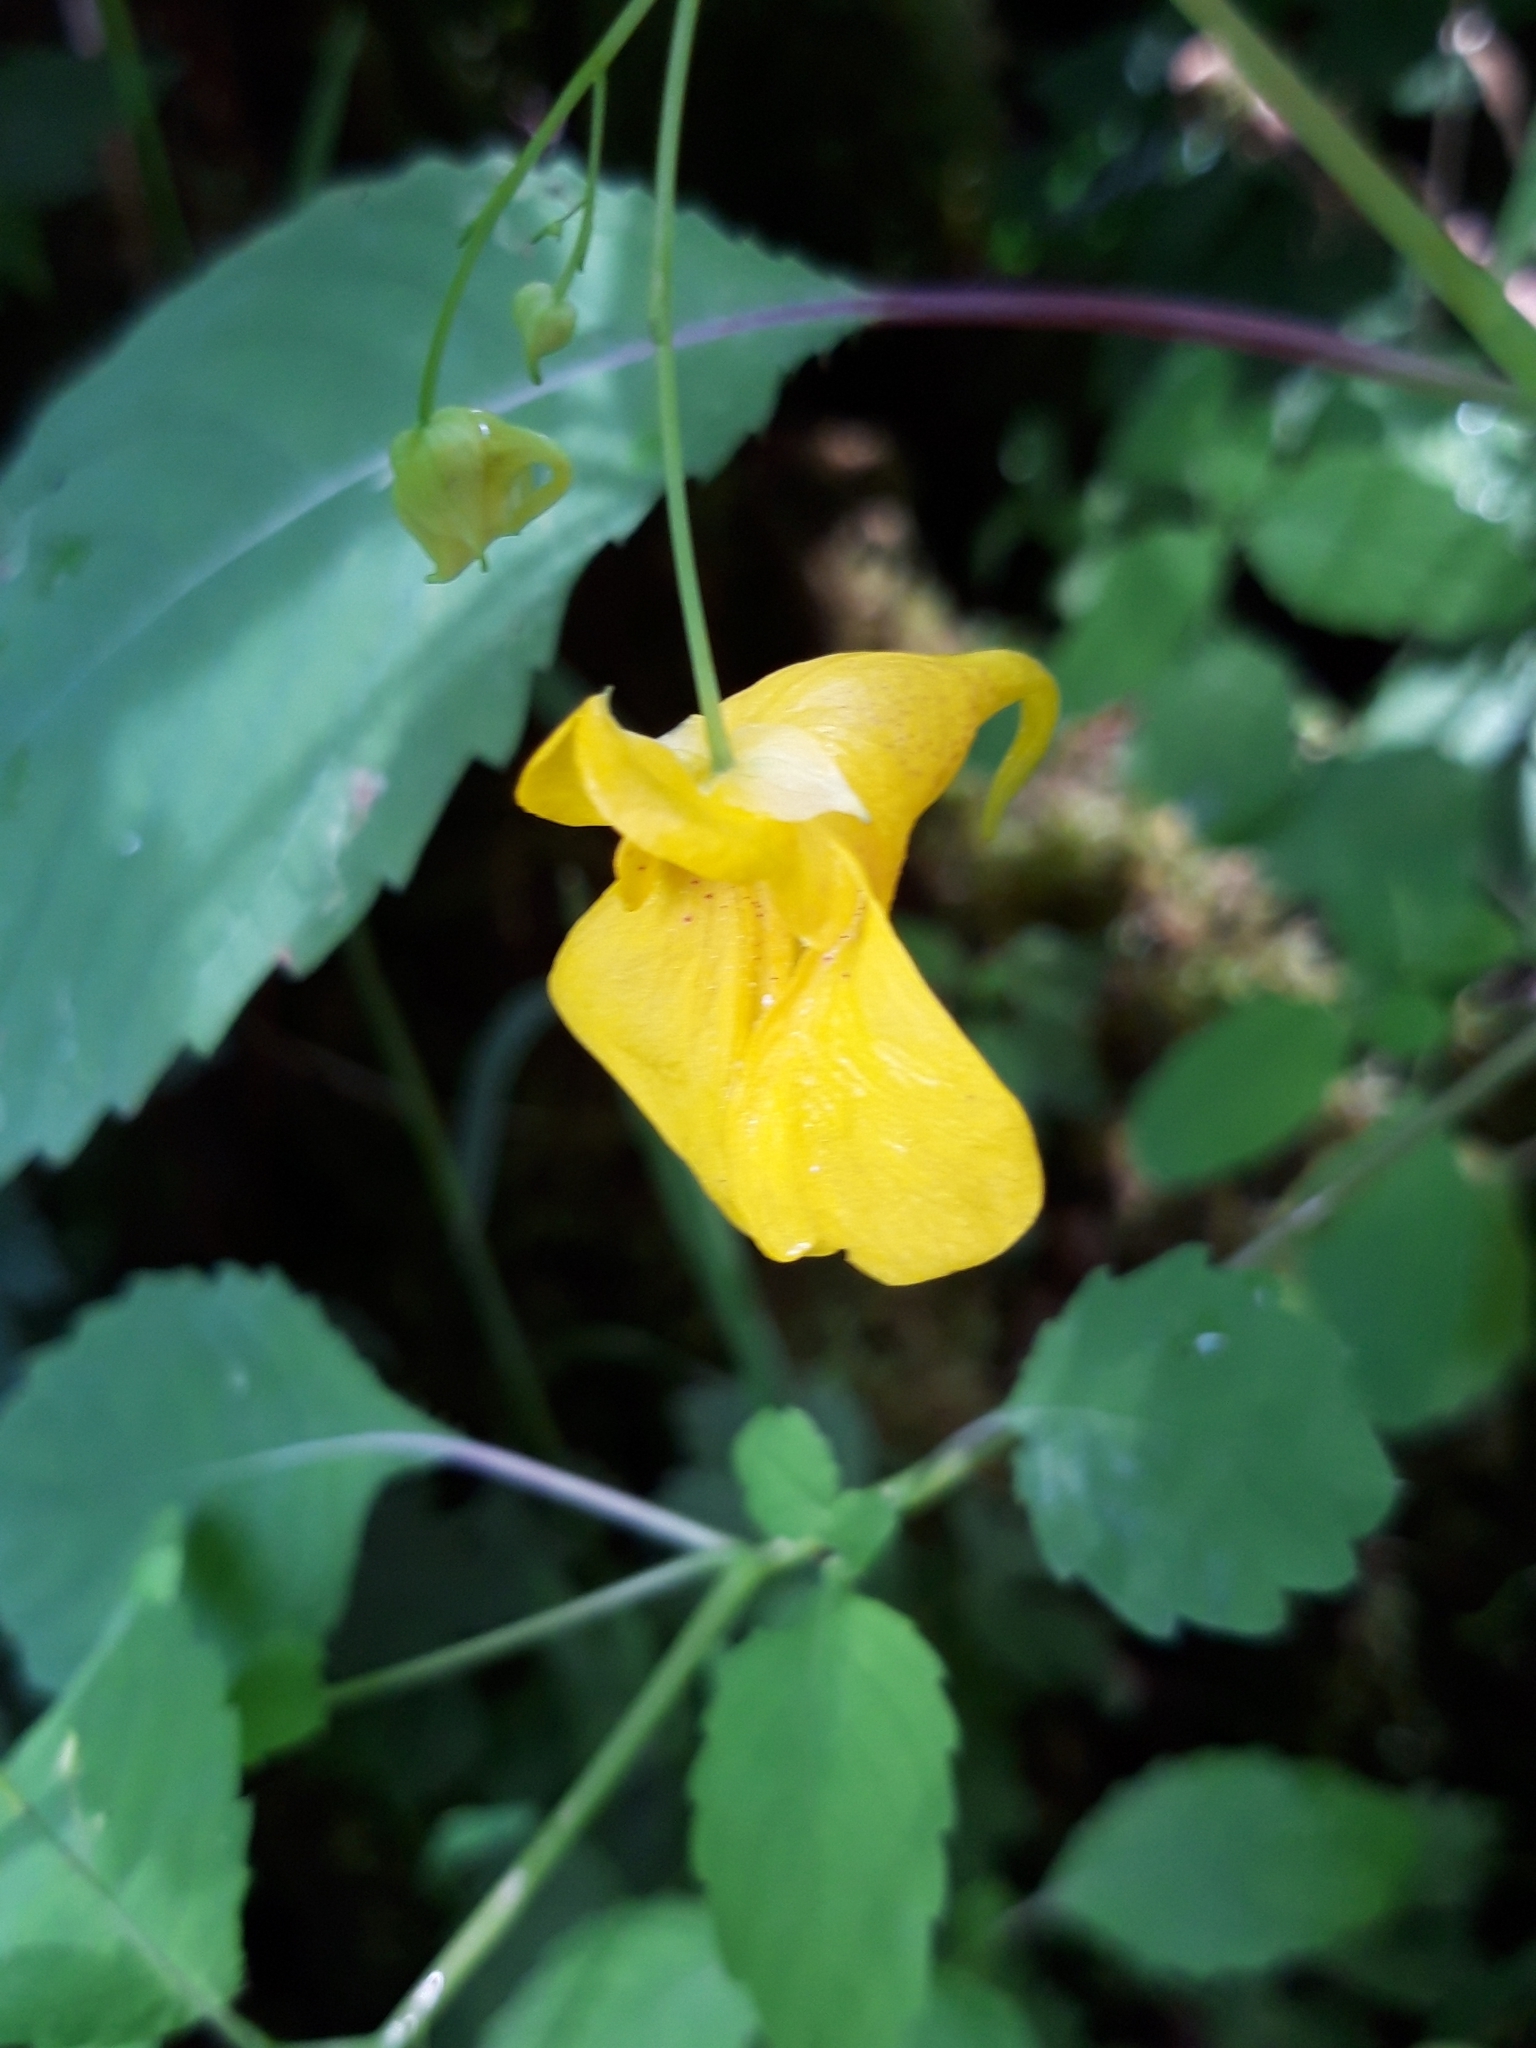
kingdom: Plantae
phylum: Tracheophyta
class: Magnoliopsida
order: Ericales
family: Balsaminaceae
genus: Impatiens
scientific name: Impatiens noli-tangere
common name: Touch-me-not balsam
